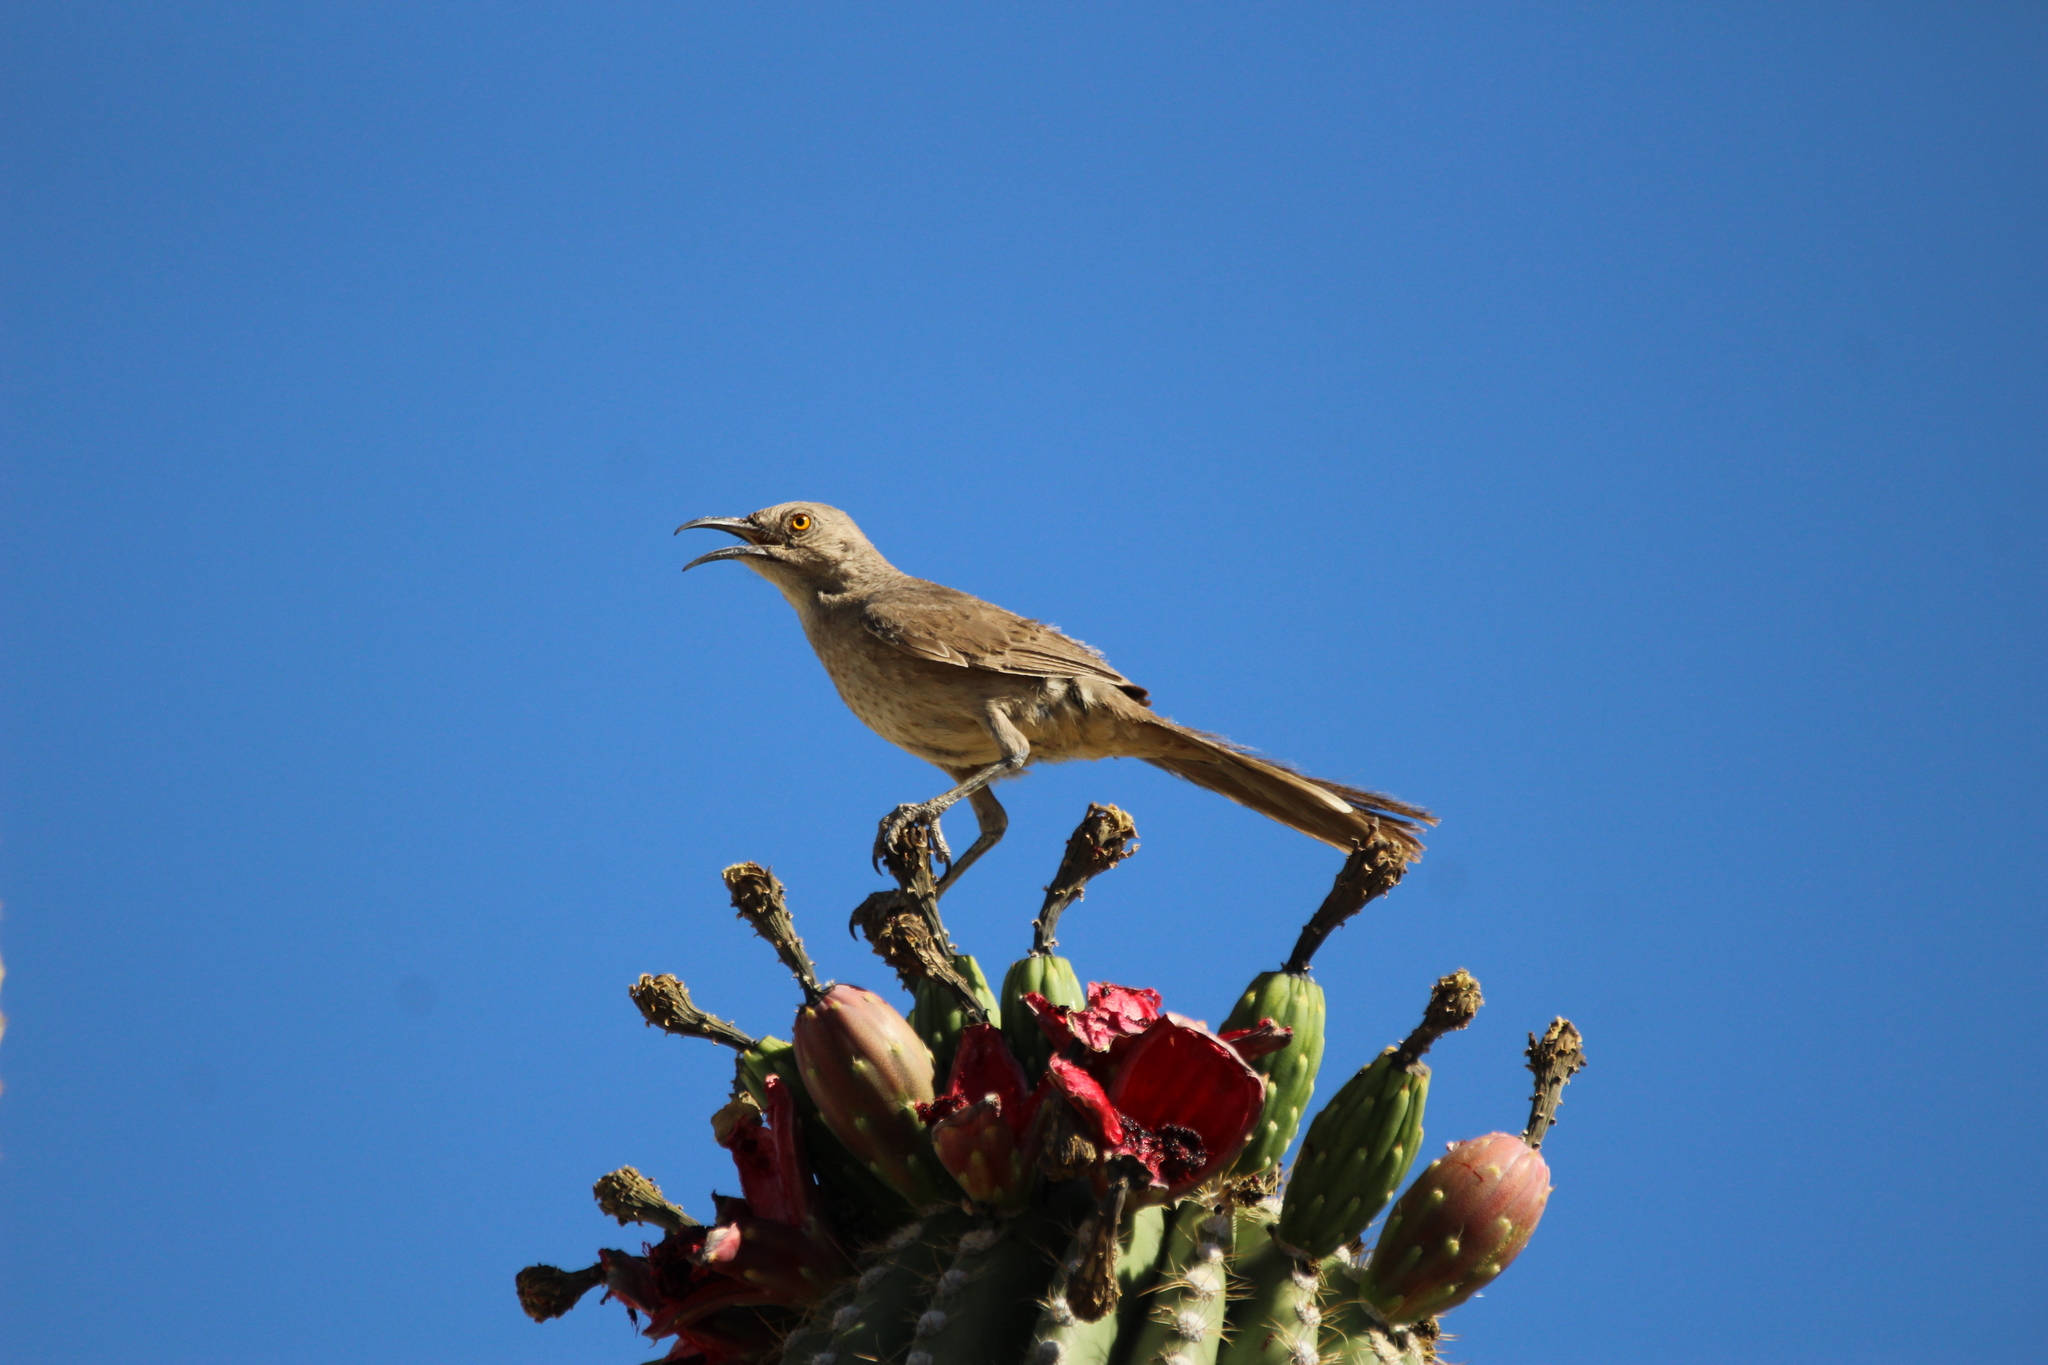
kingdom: Animalia
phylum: Chordata
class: Aves
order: Passeriformes
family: Mimidae
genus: Toxostoma
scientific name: Toxostoma curvirostre
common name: Curve-billed thrasher
